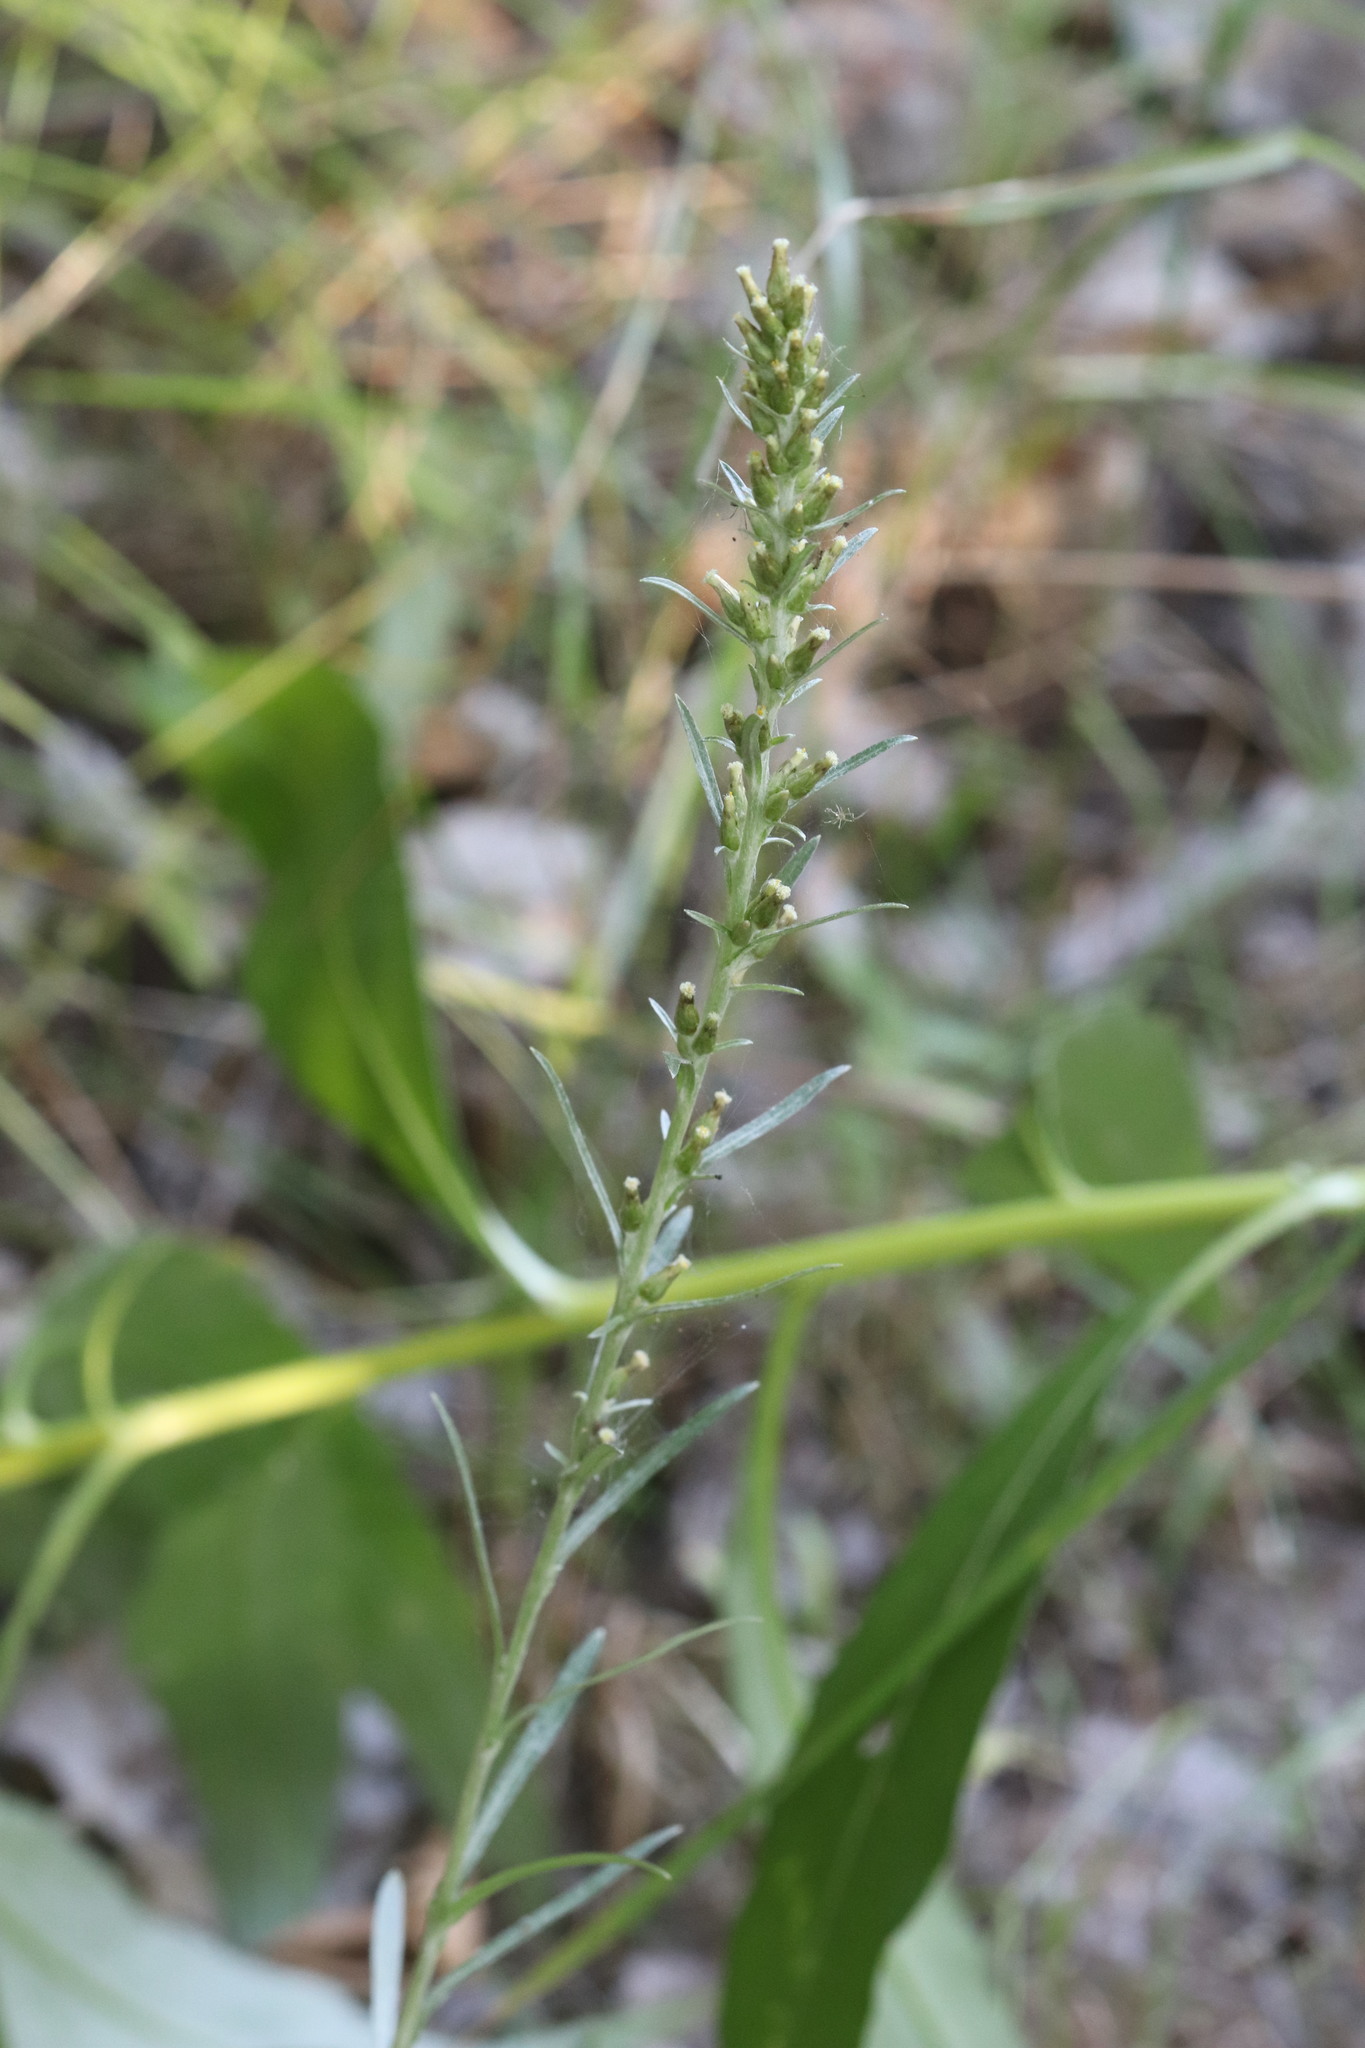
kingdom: Plantae
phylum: Tracheophyta
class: Magnoliopsida
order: Asterales
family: Asteraceae
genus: Omalotheca
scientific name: Omalotheca sylvatica
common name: Heath cudweed
